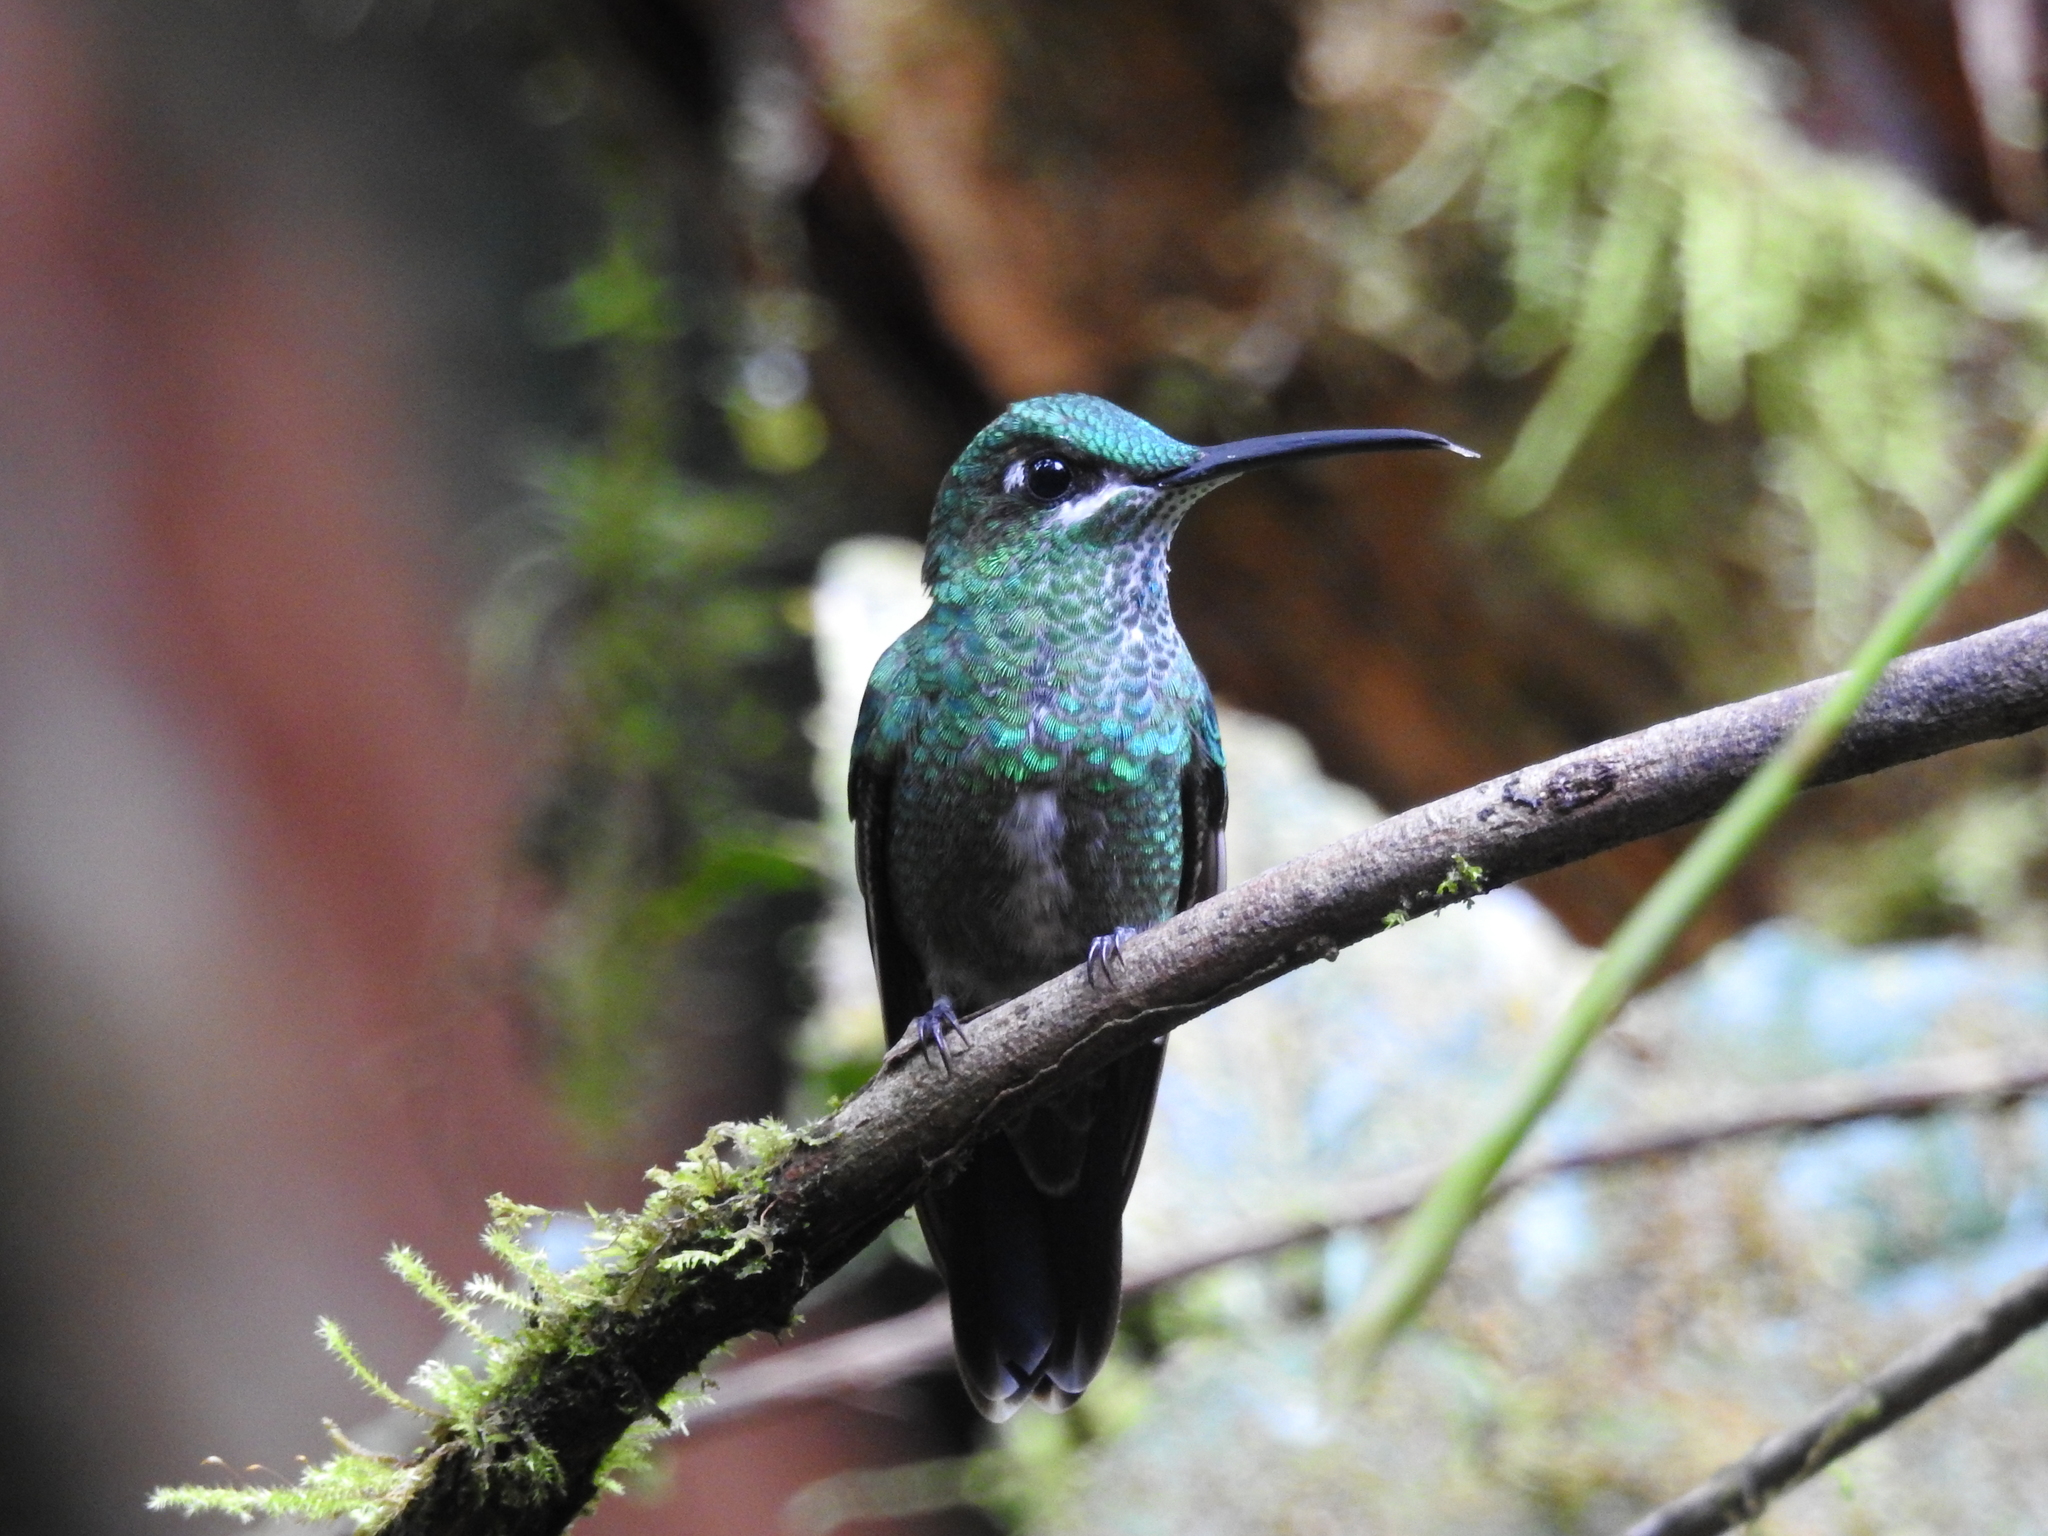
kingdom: Animalia
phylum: Chordata
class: Aves
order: Apodiformes
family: Trochilidae
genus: Heliodoxa
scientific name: Heliodoxa jacula
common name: Green-crowned brilliant
